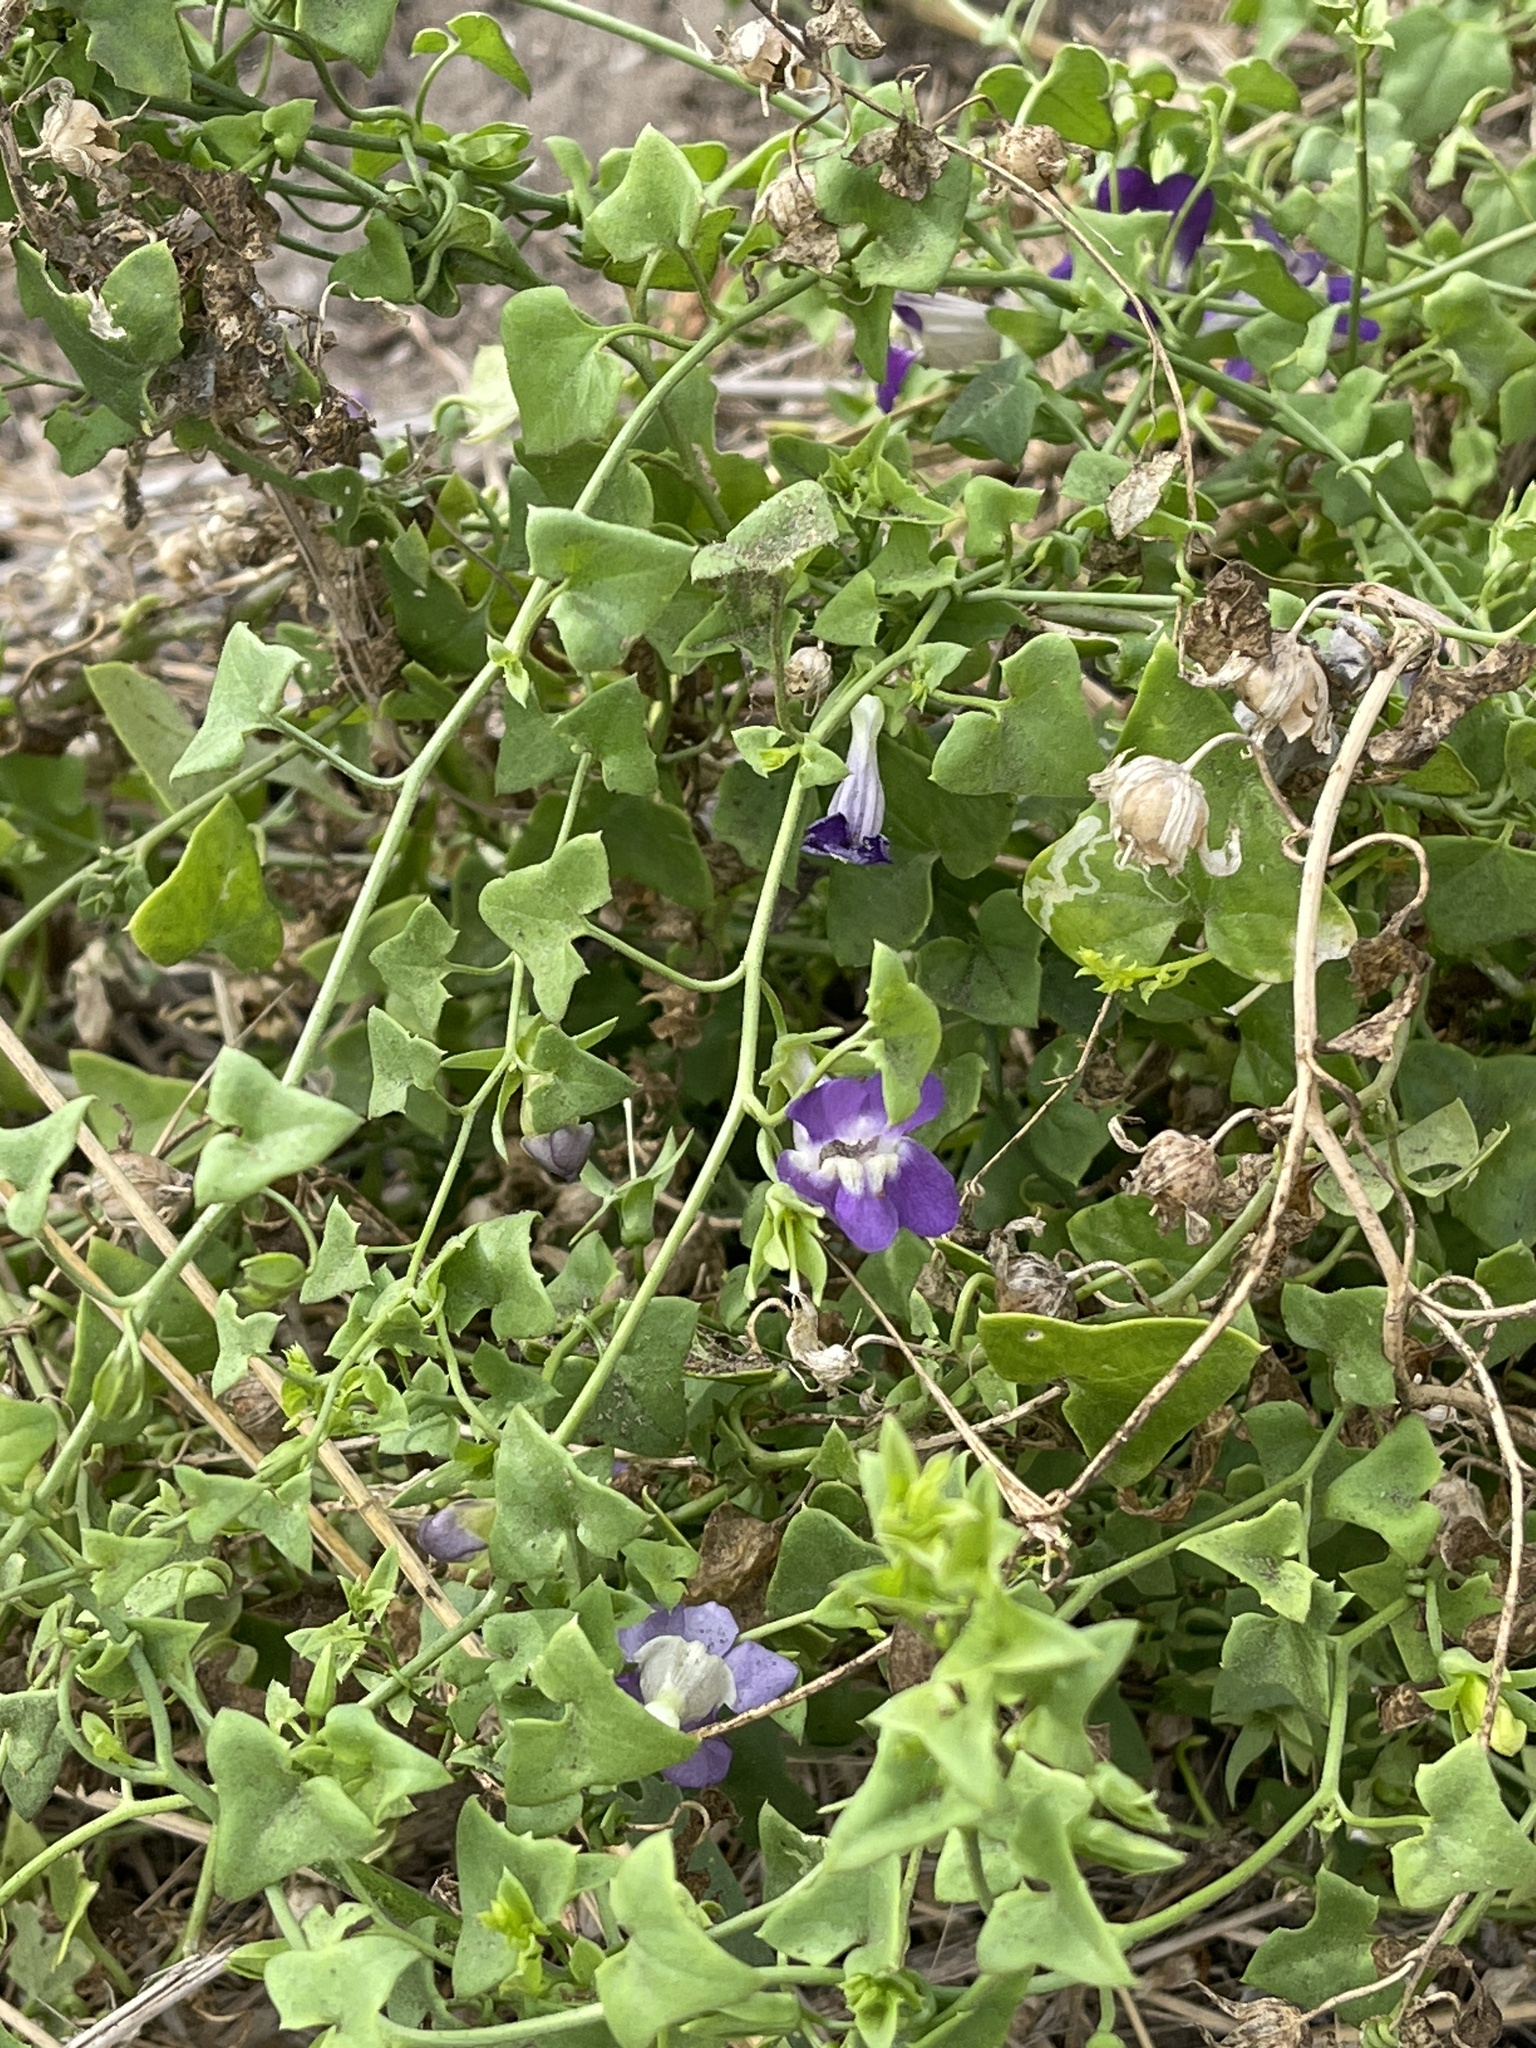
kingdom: Plantae
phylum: Tracheophyta
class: Magnoliopsida
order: Lamiales
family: Plantaginaceae
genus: Maurandella
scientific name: Maurandella antirrhiniflora
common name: Violet twining-snapdragon
